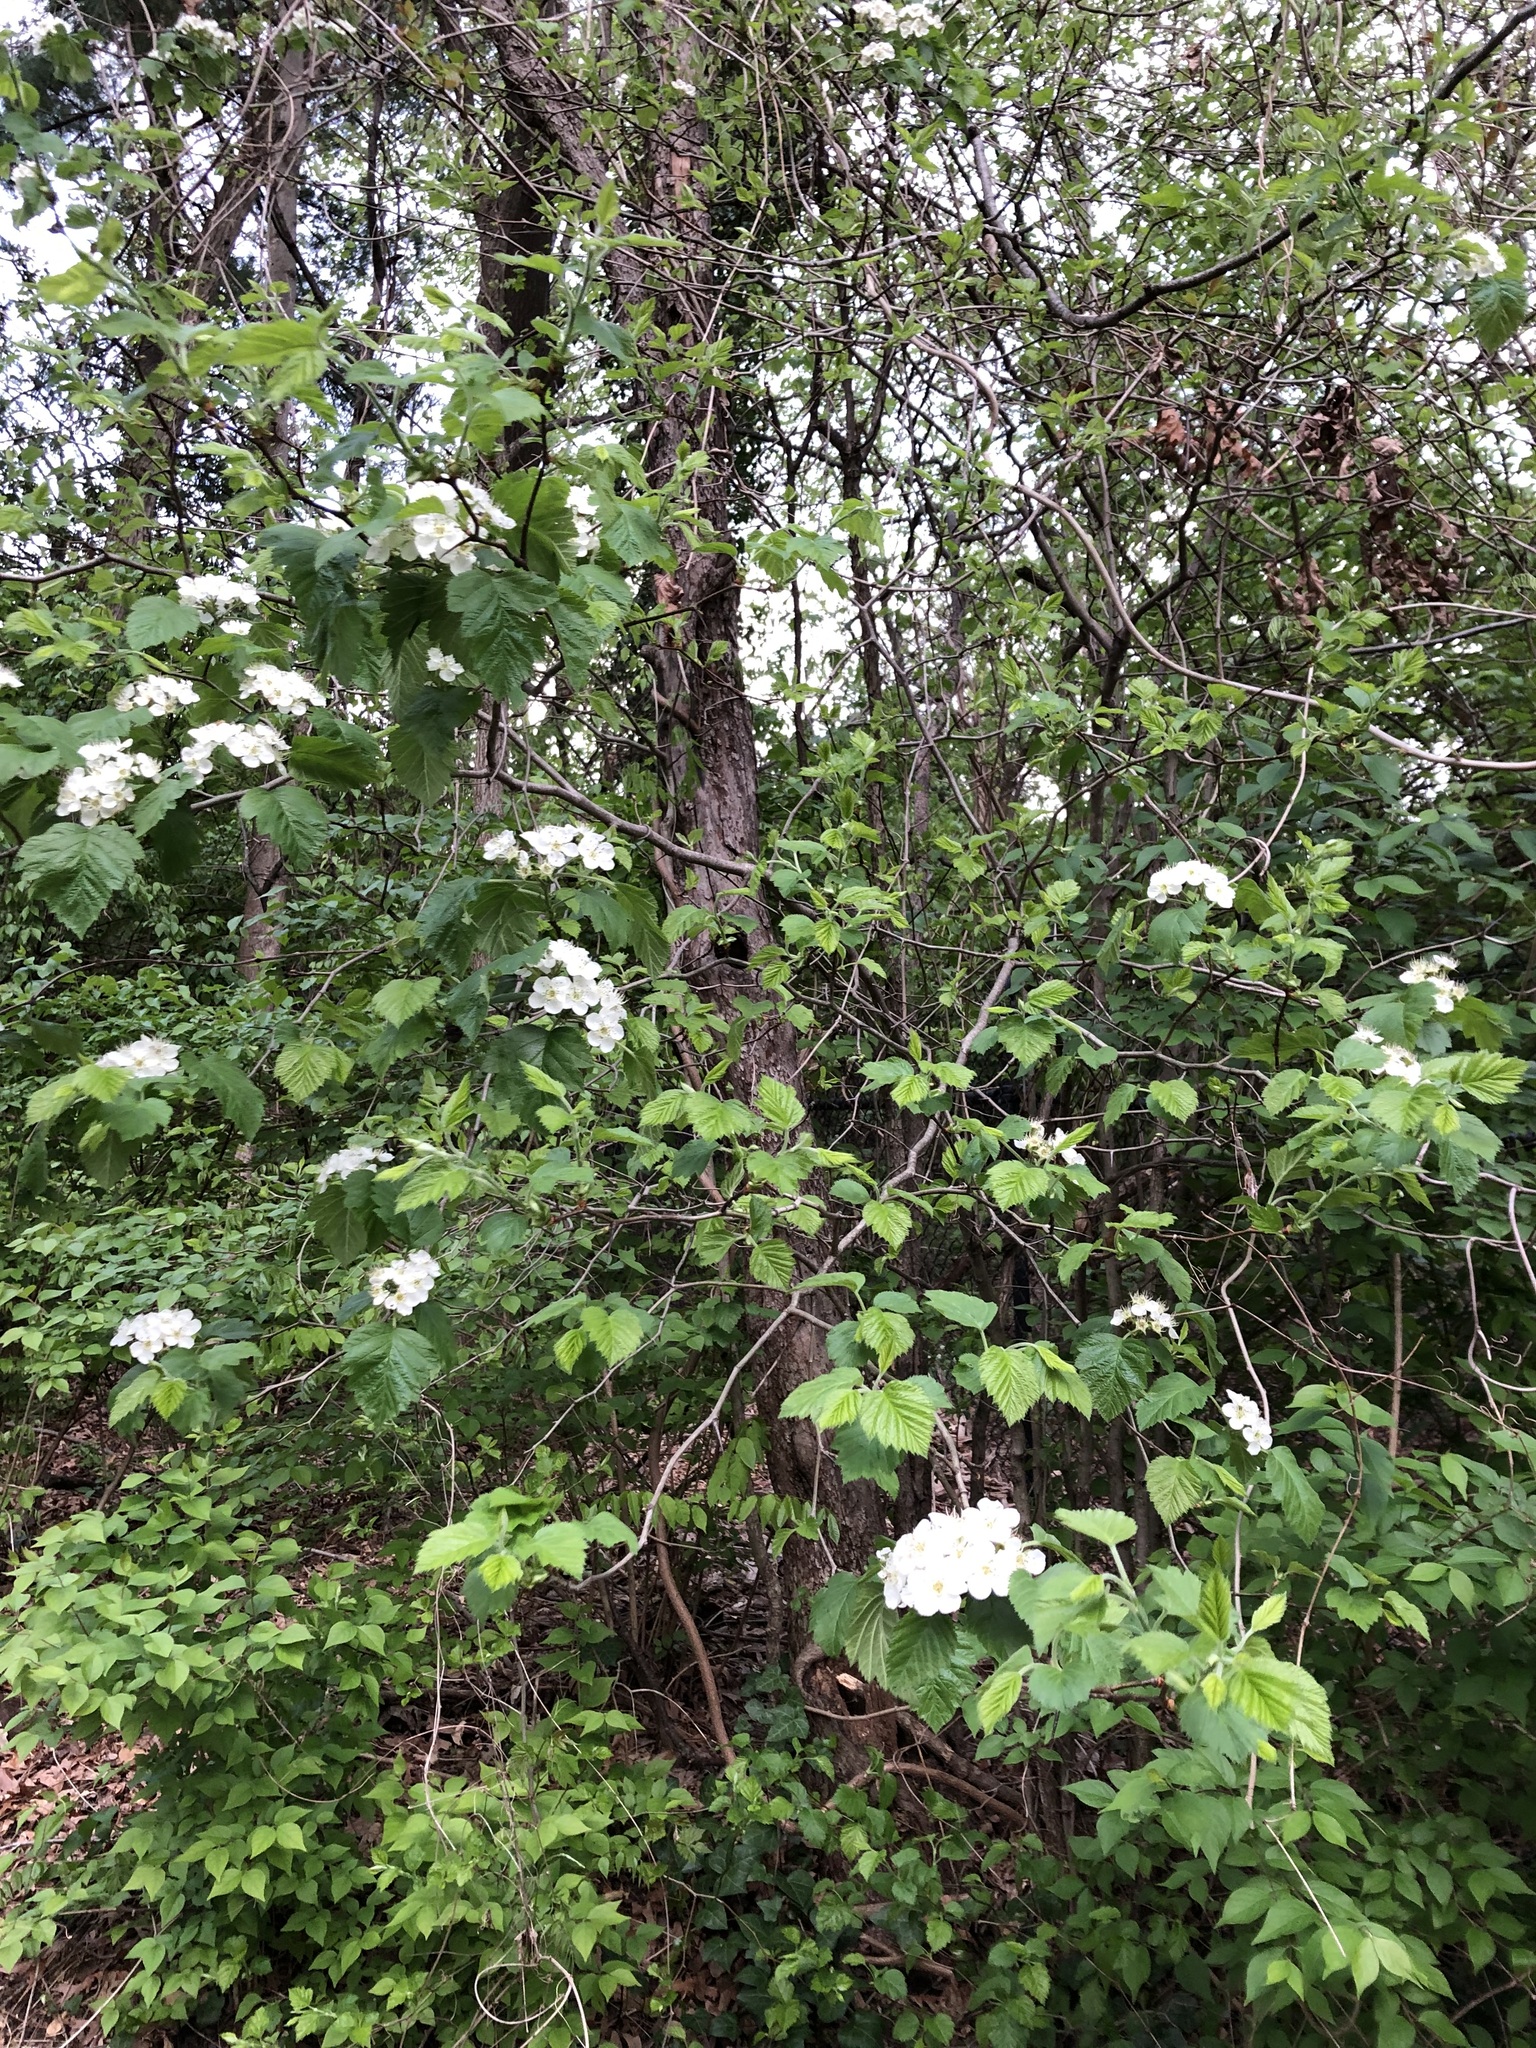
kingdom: Plantae
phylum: Tracheophyta
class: Magnoliopsida
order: Rosales
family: Rosaceae
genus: Crataegus
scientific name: Crataegus mollis
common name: Downy hawthorn
